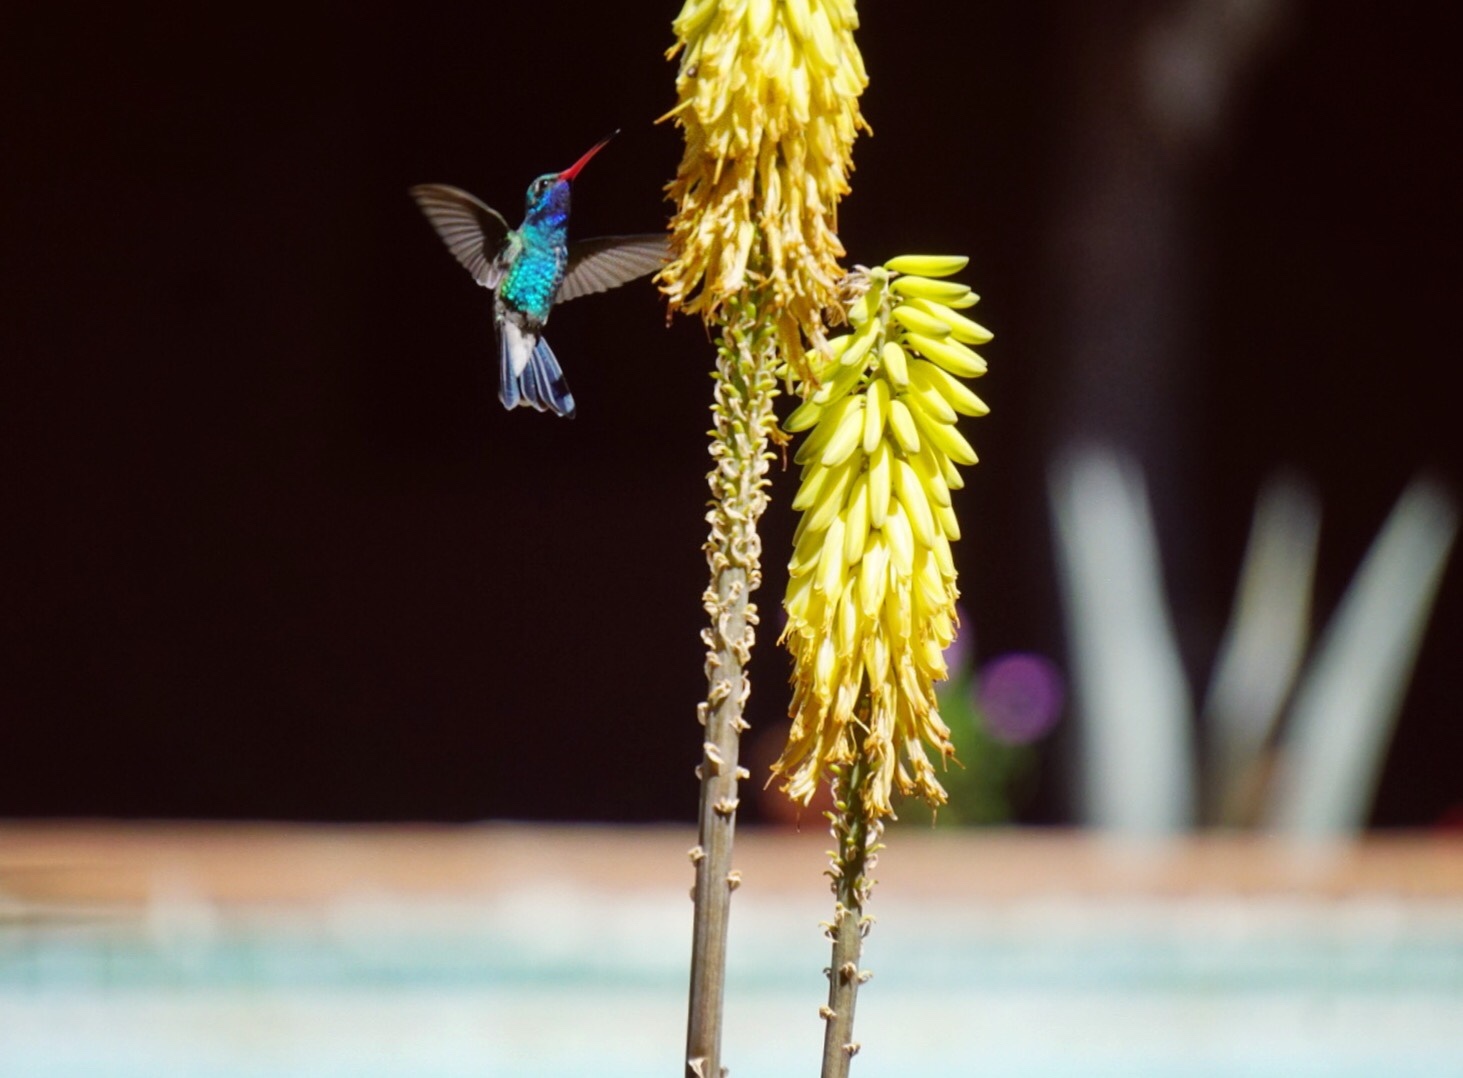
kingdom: Animalia
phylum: Chordata
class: Aves
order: Apodiformes
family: Trochilidae
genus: Cynanthus
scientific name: Cynanthus latirostris
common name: Broad-billed hummingbird
